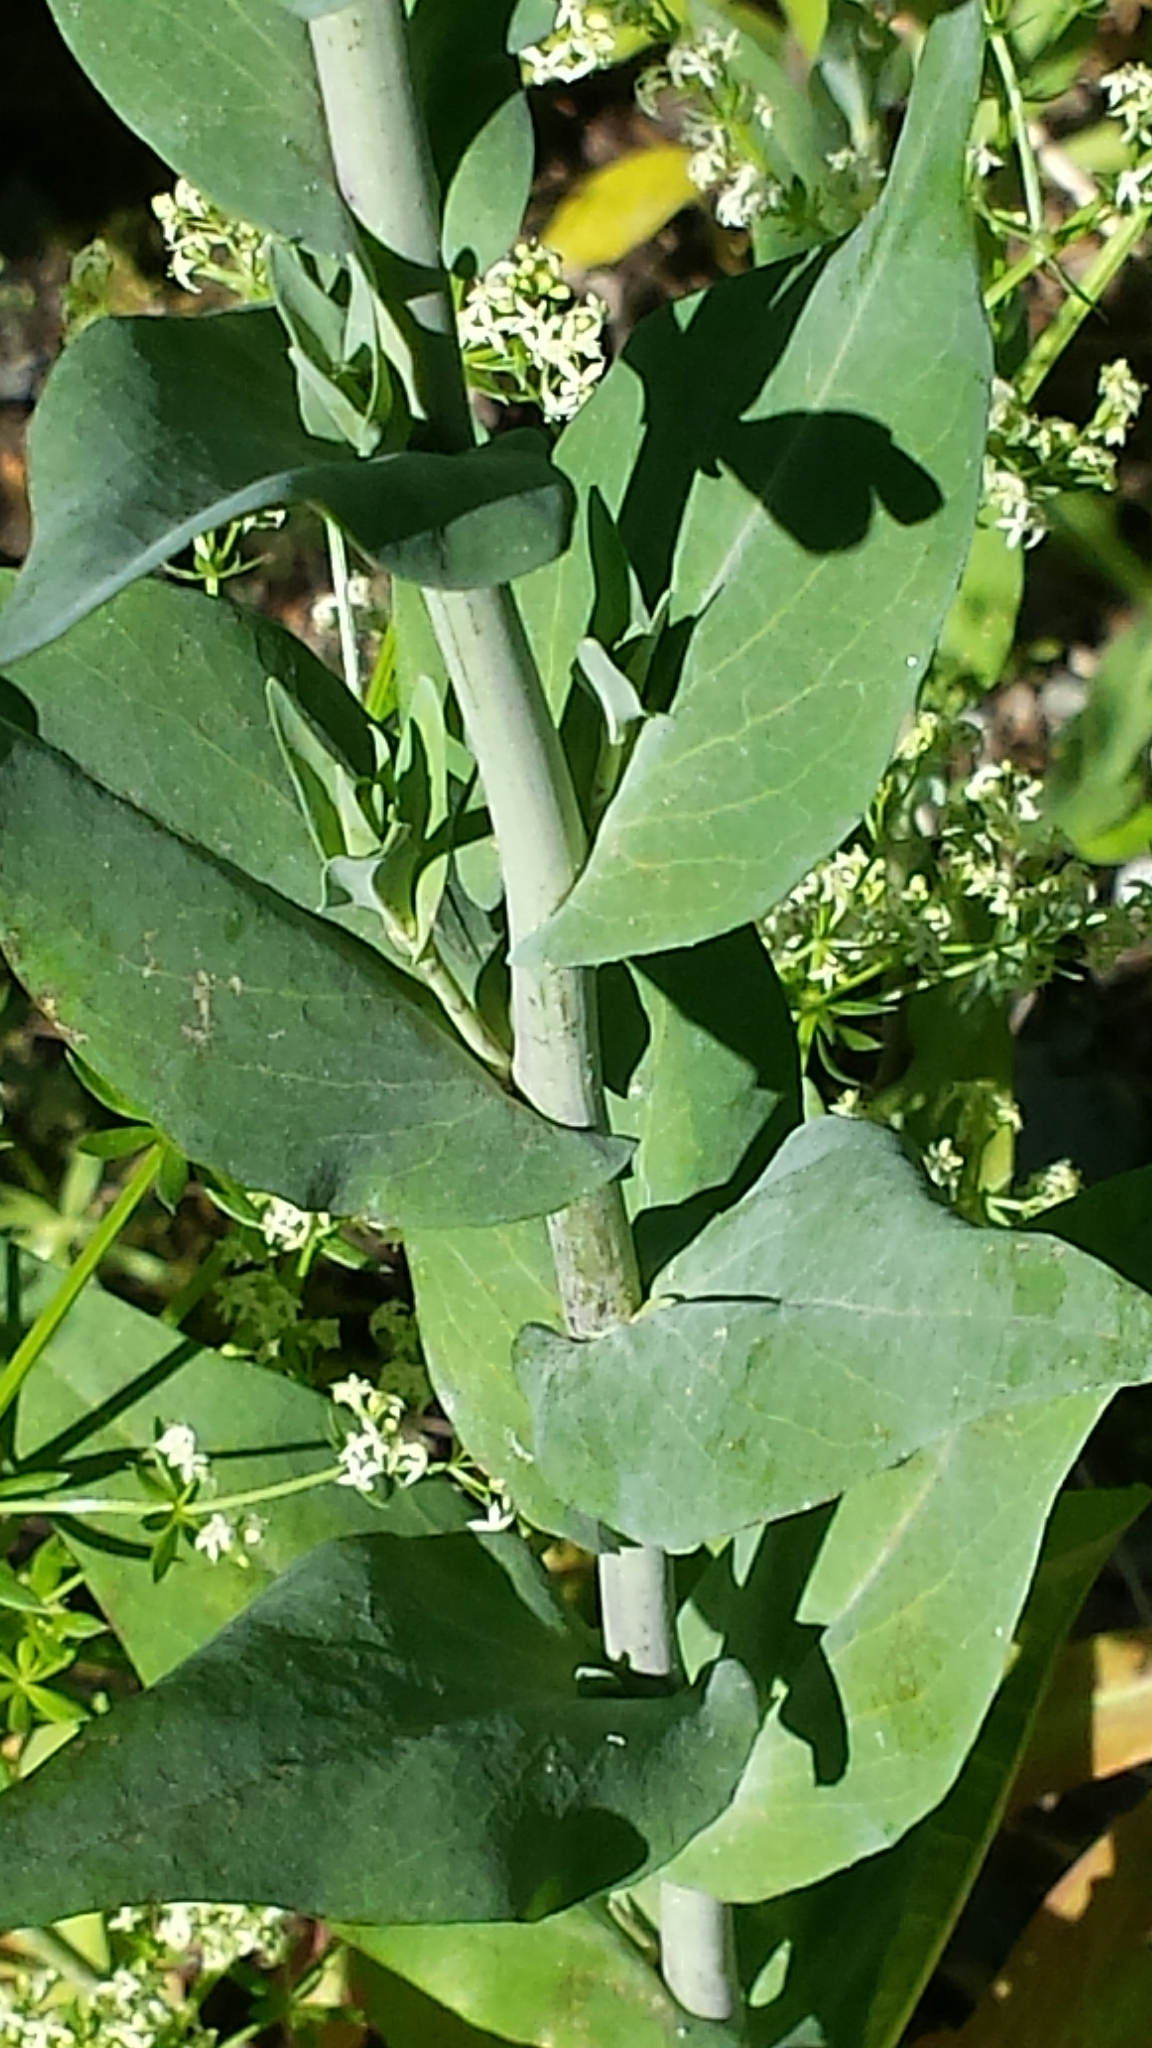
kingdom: Plantae
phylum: Tracheophyta
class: Magnoliopsida
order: Brassicales
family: Brassicaceae
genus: Turritis
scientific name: Turritis glabra
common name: Tower rockcress
